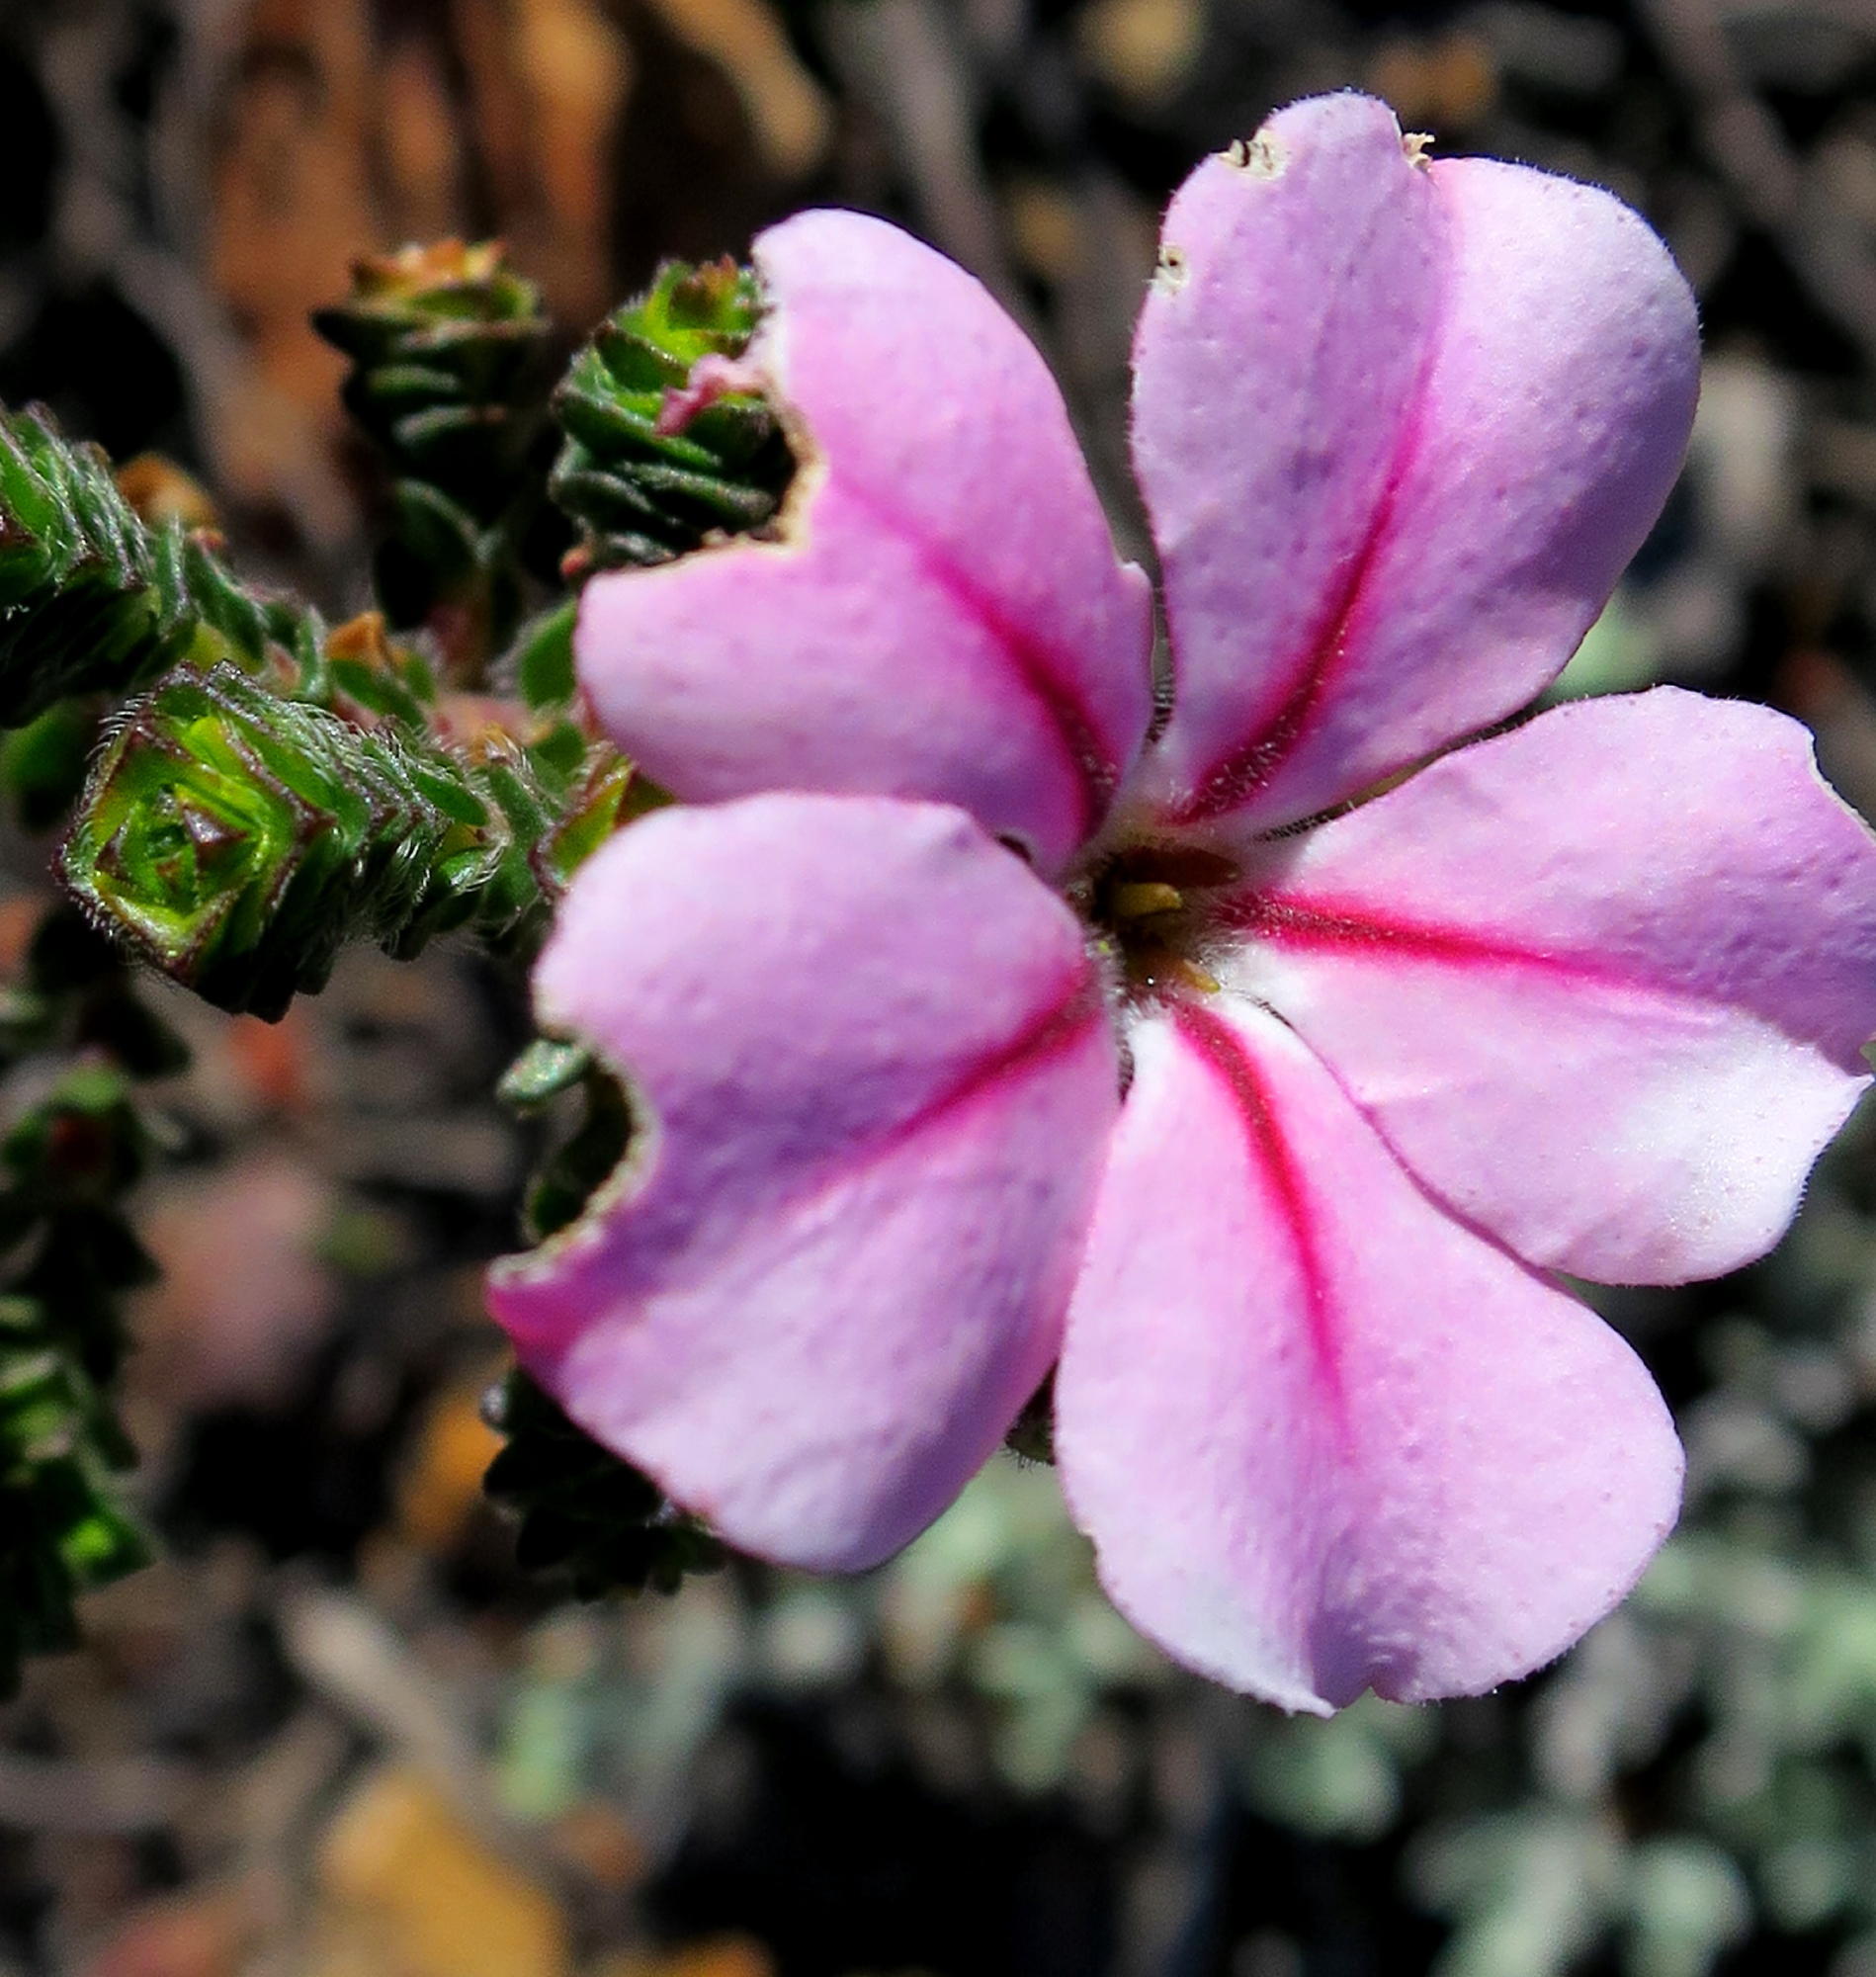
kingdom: Plantae
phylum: Tracheophyta
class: Magnoliopsida
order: Sapindales
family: Rutaceae
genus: Acmadenia
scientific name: Acmadenia tetragona
